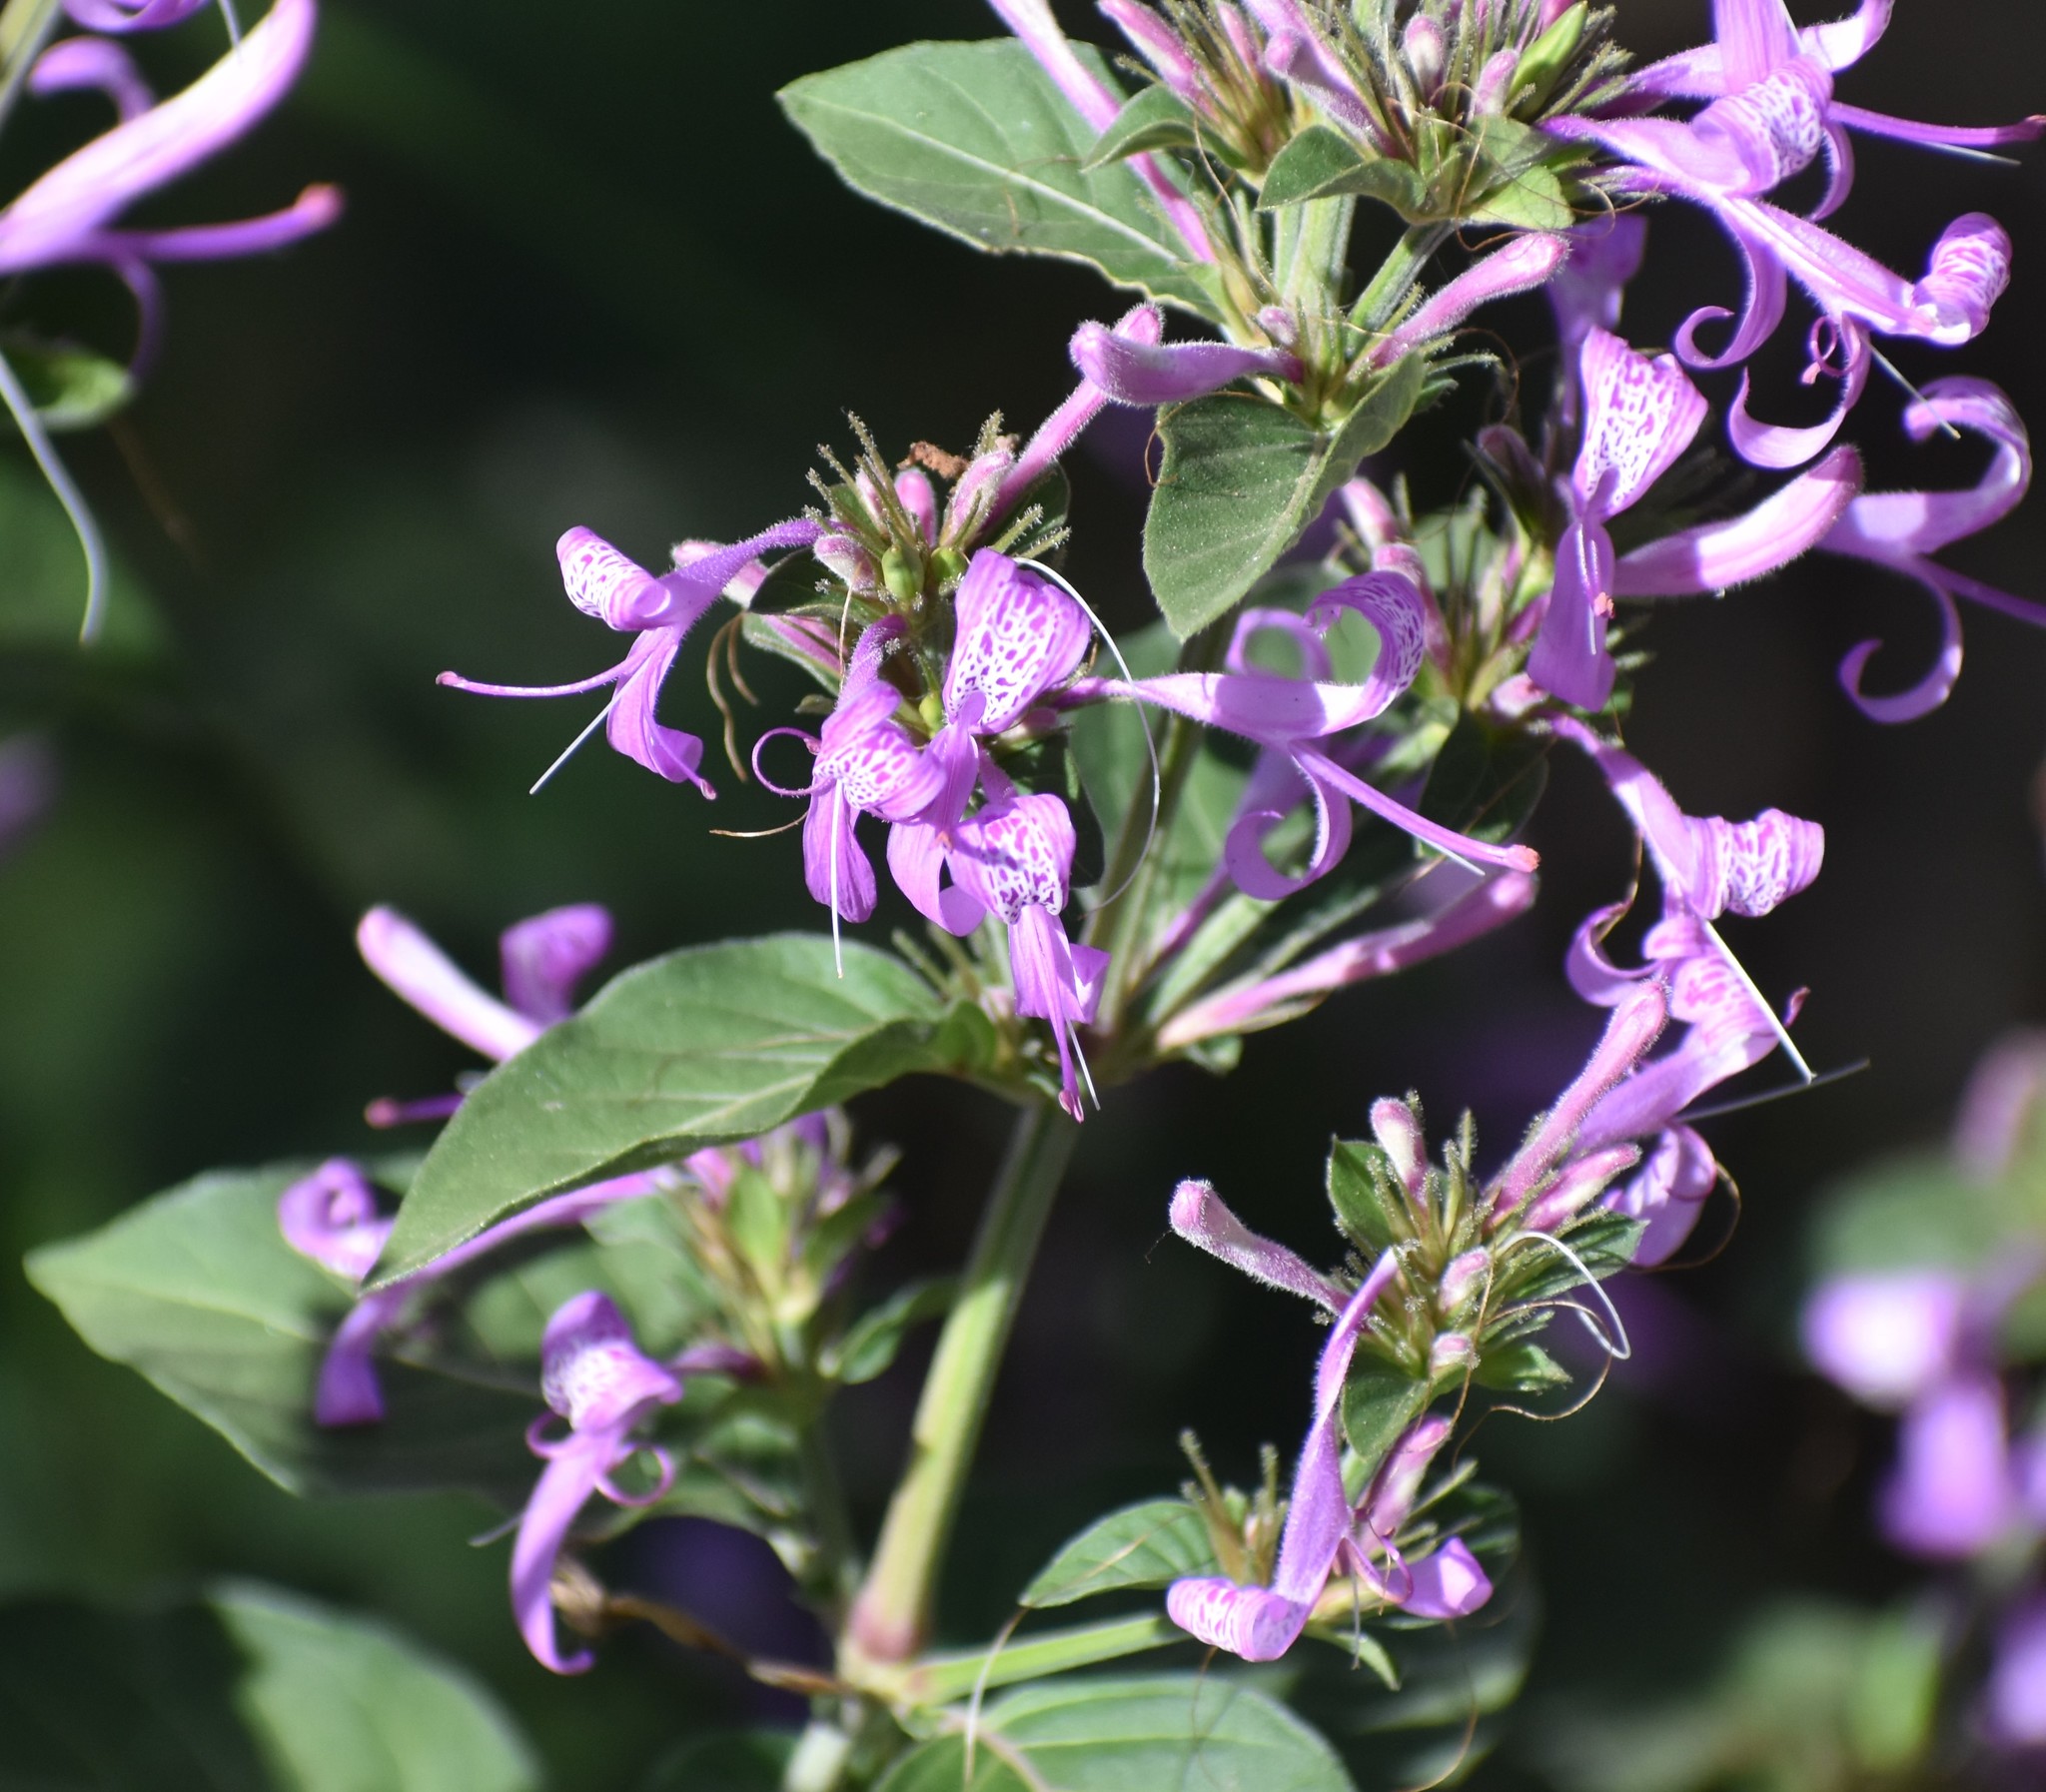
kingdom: Plantae
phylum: Tracheophyta
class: Magnoliopsida
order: Lamiales
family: Acanthaceae
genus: Hypoestes
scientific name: Hypoestes aristata
